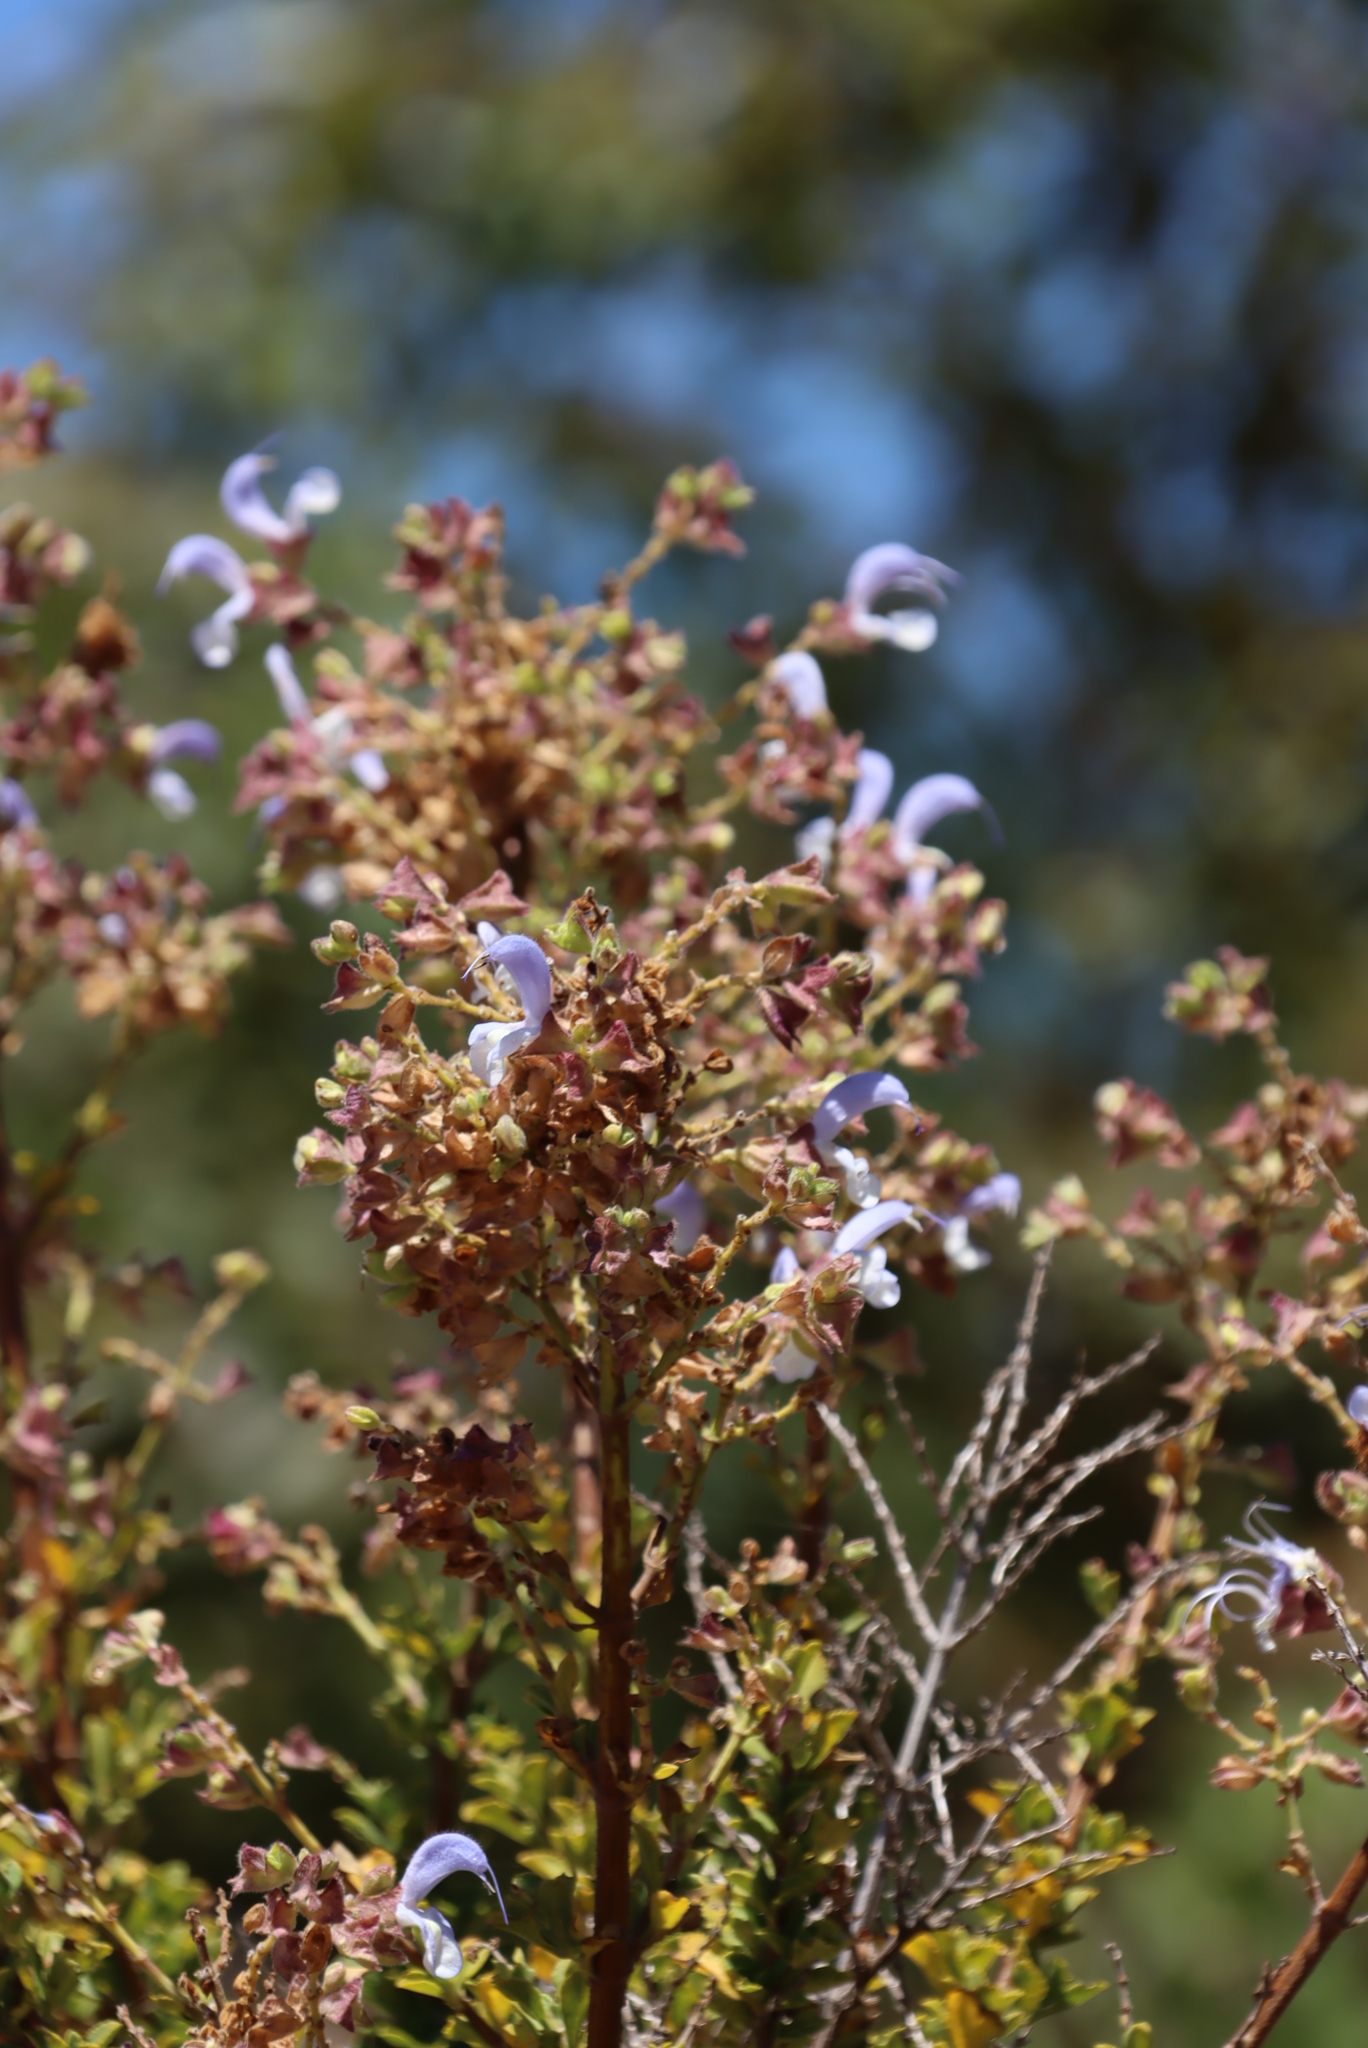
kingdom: Plantae
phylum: Tracheophyta
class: Magnoliopsida
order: Lamiales
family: Lamiaceae
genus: Salvia
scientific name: Salvia chamelaeagnea
